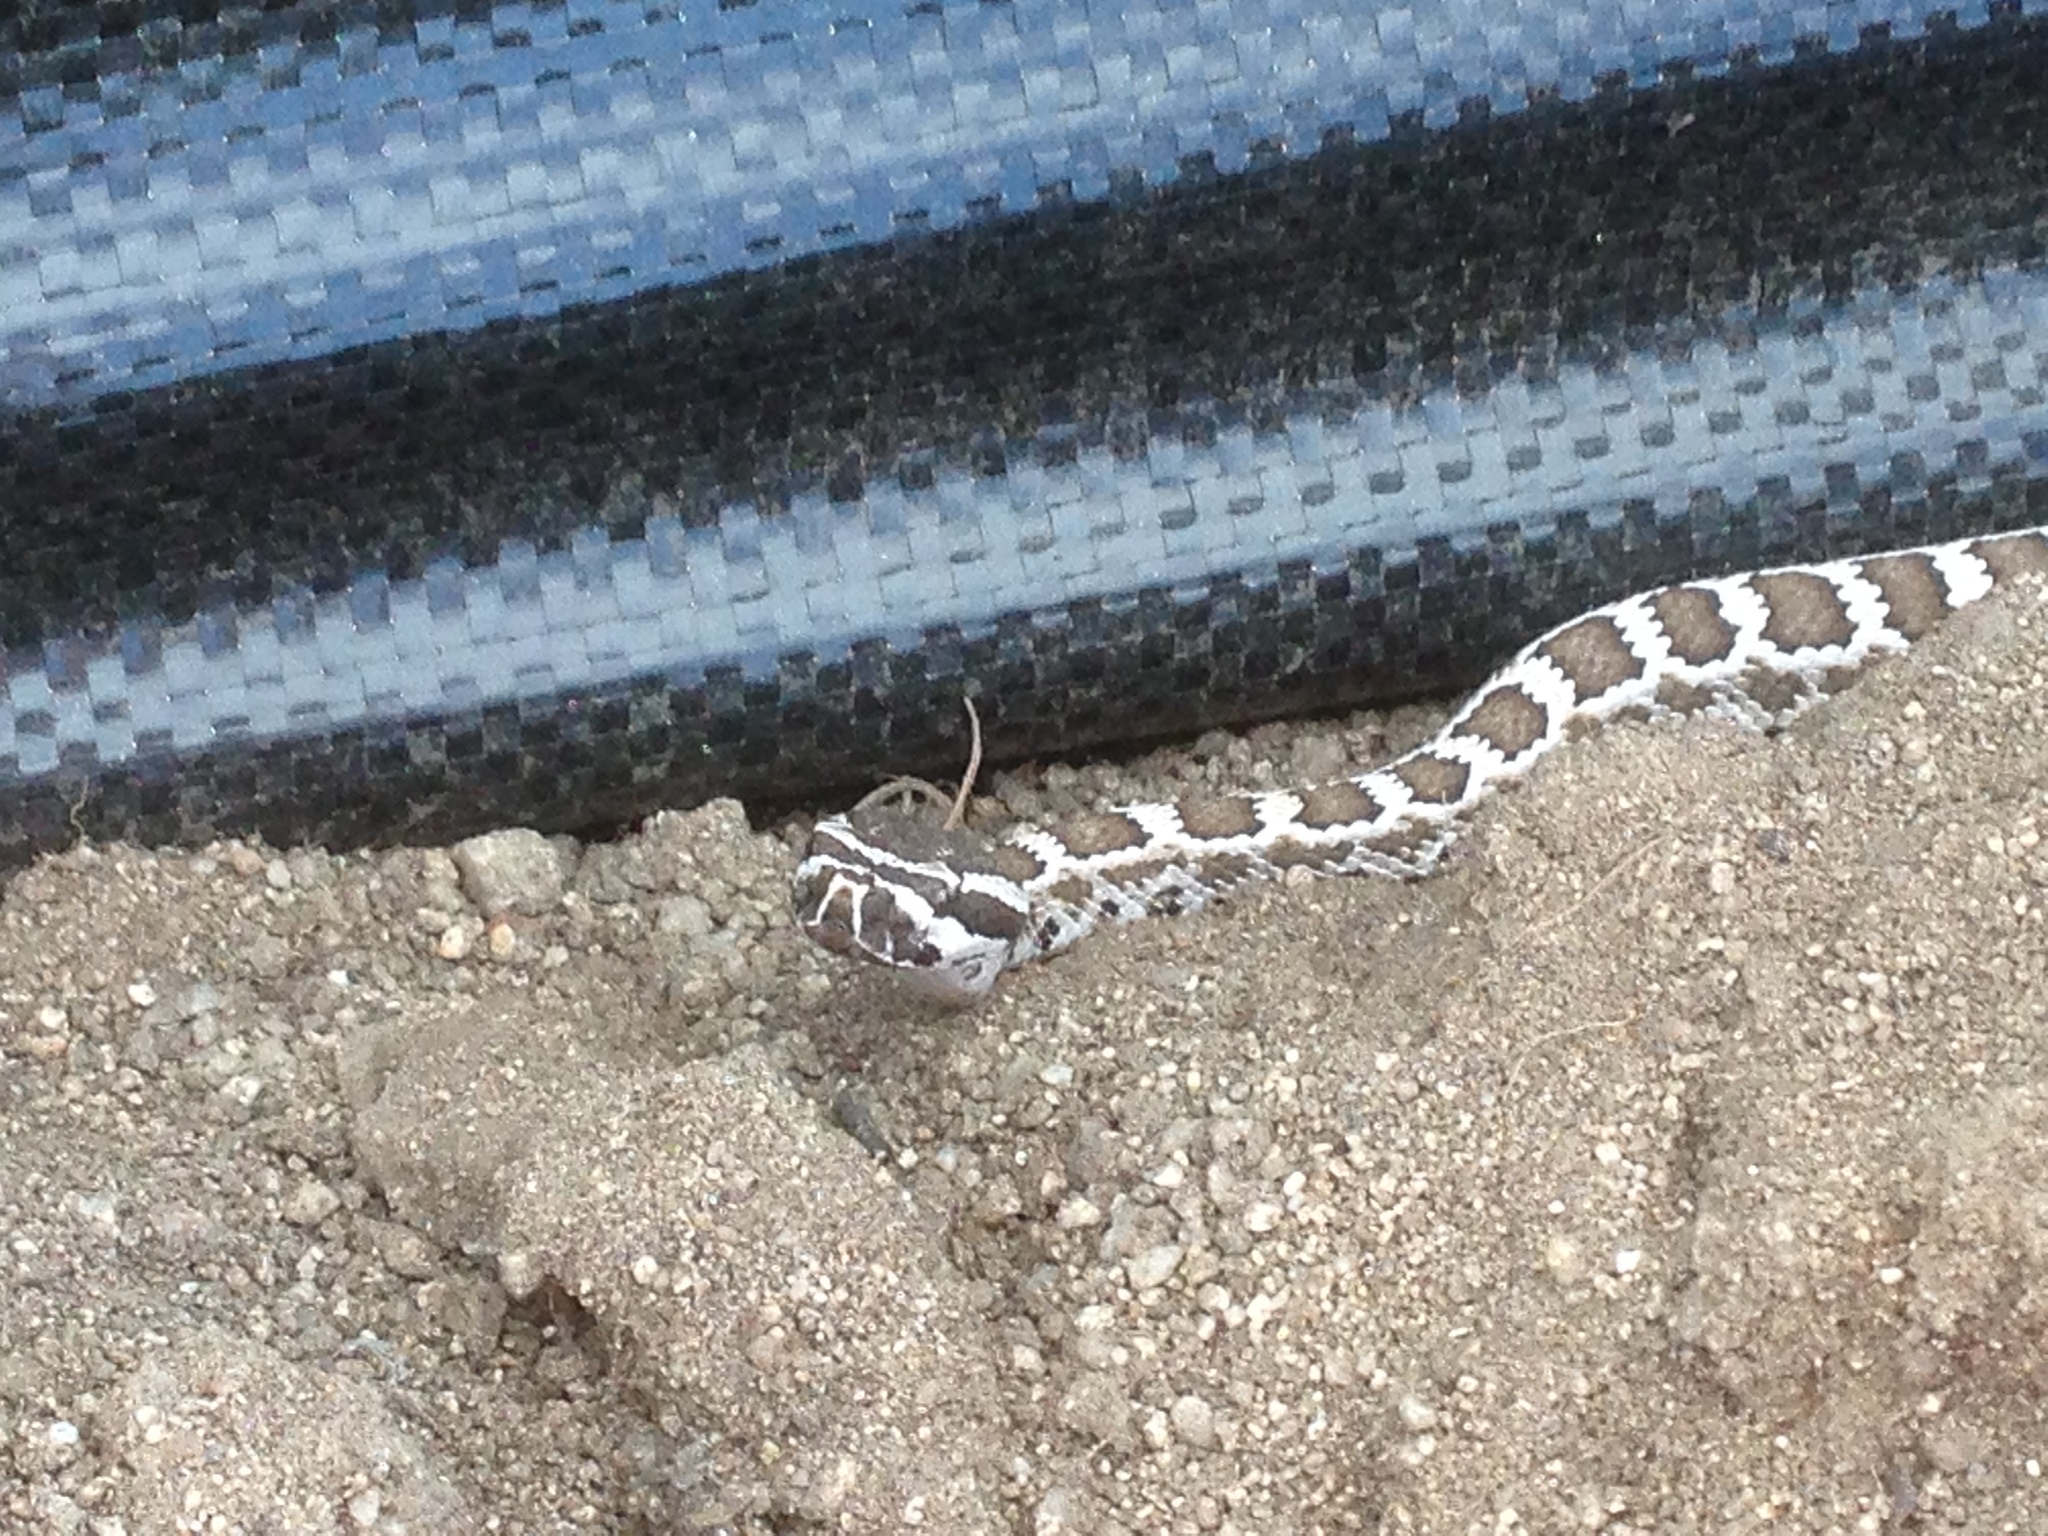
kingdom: Animalia
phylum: Chordata
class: Squamata
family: Viperidae
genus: Crotalus
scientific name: Crotalus oreganus
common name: Abyssus
